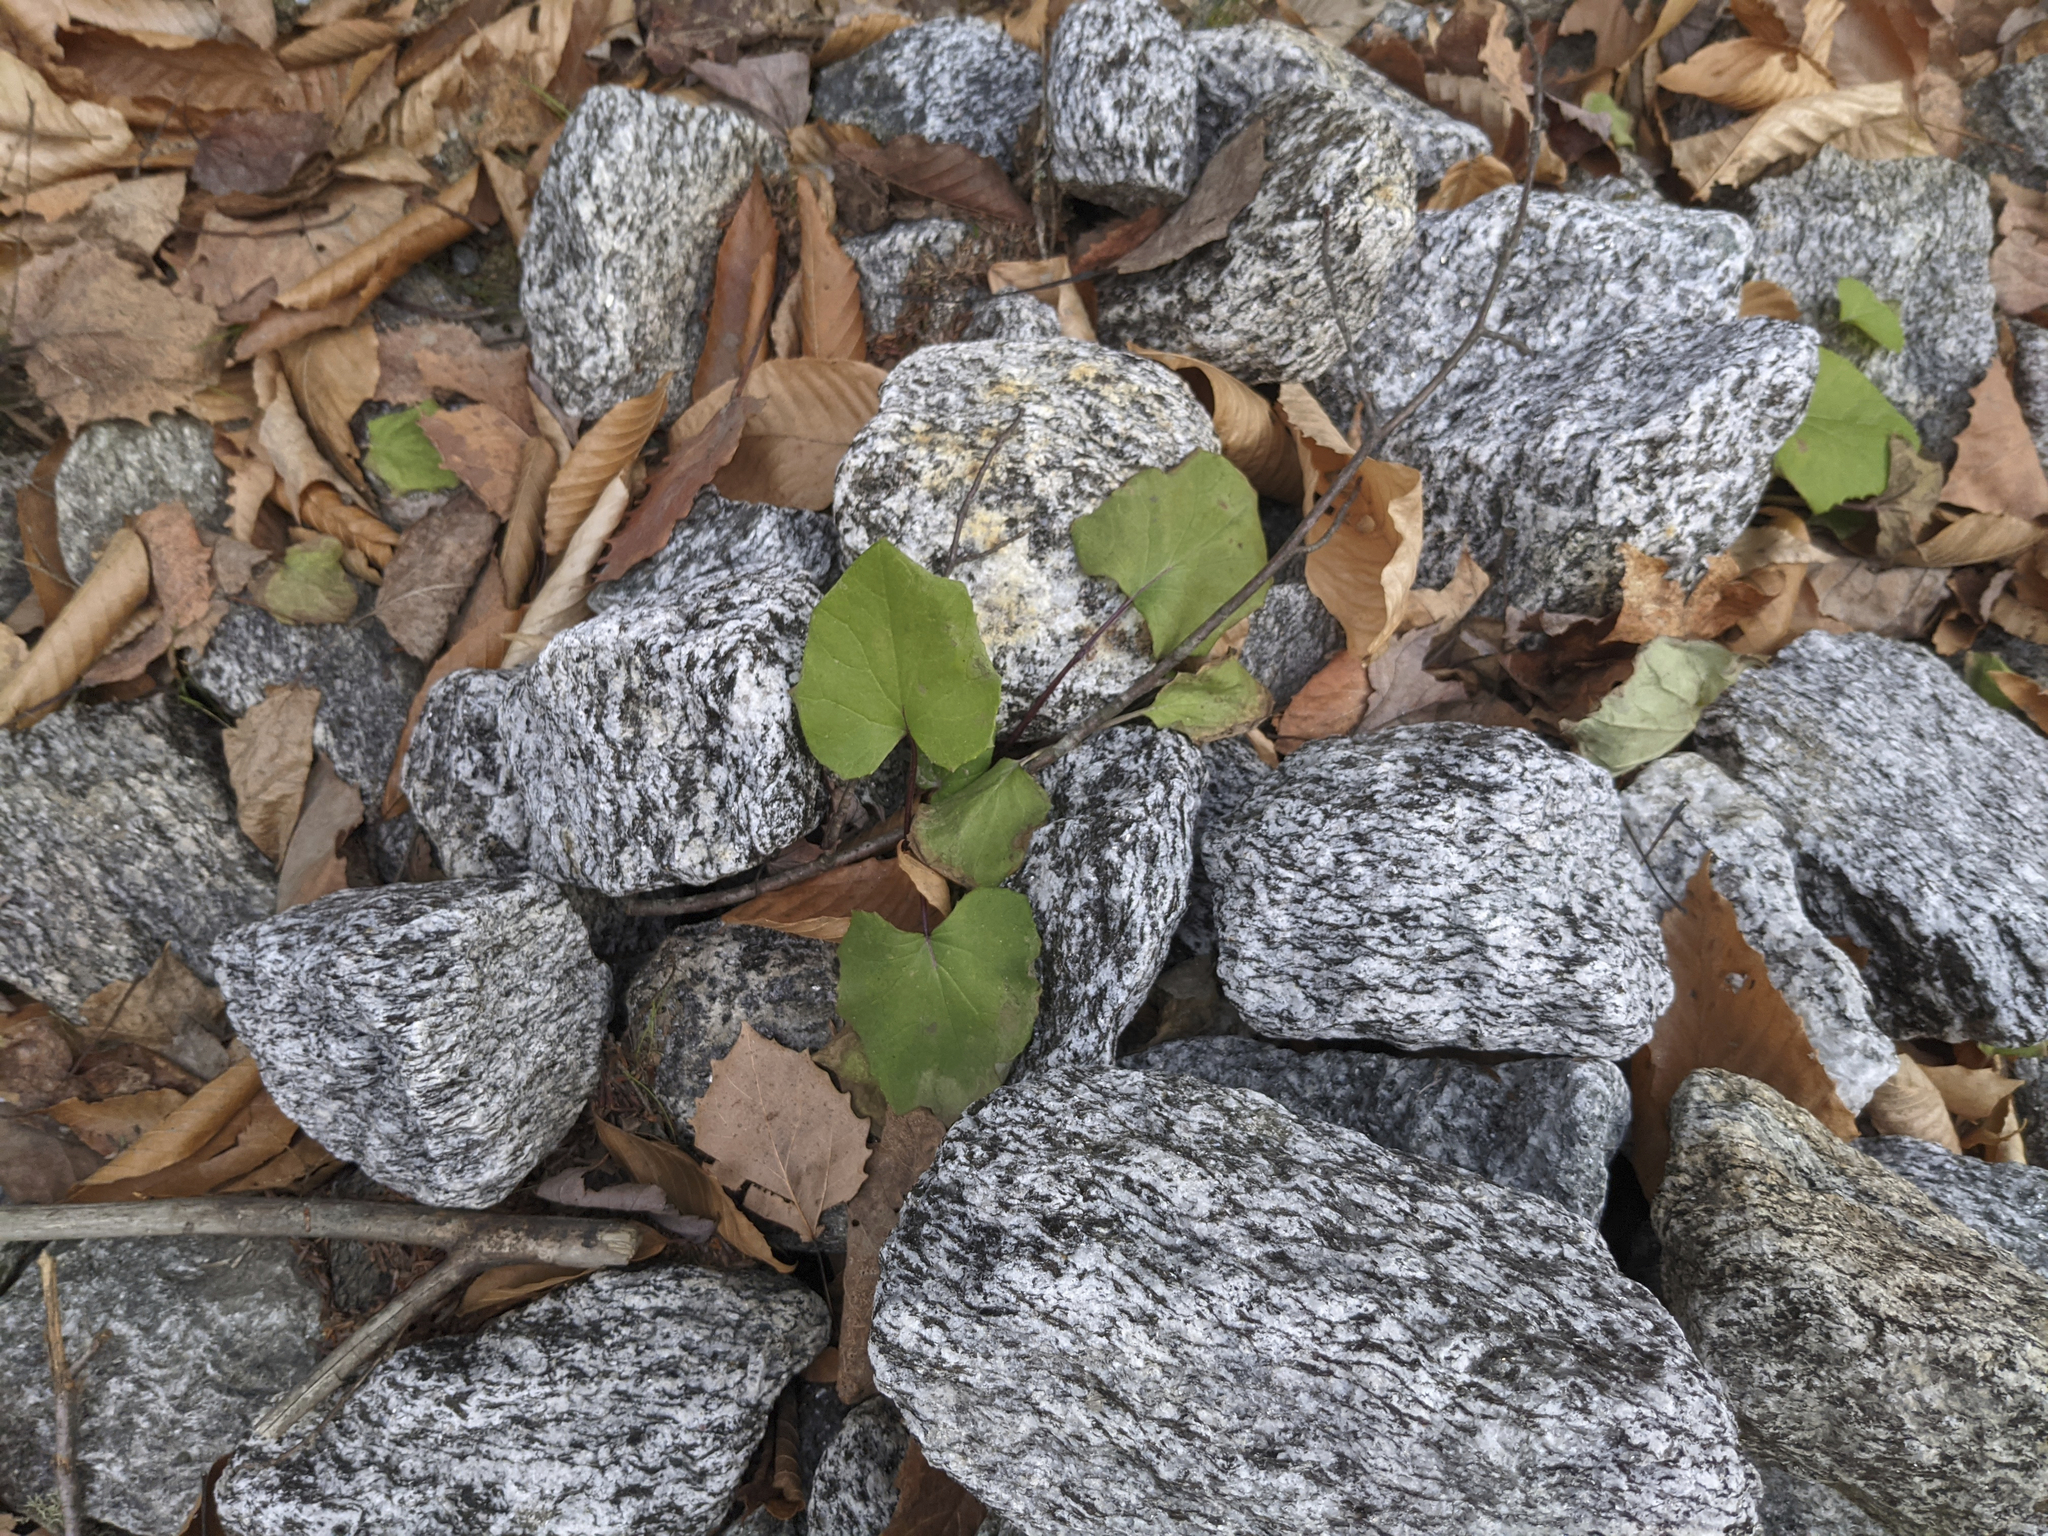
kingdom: Plantae
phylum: Tracheophyta
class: Magnoliopsida
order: Asterales
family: Asteraceae
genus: Tussilago
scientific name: Tussilago farfara
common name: Coltsfoot
